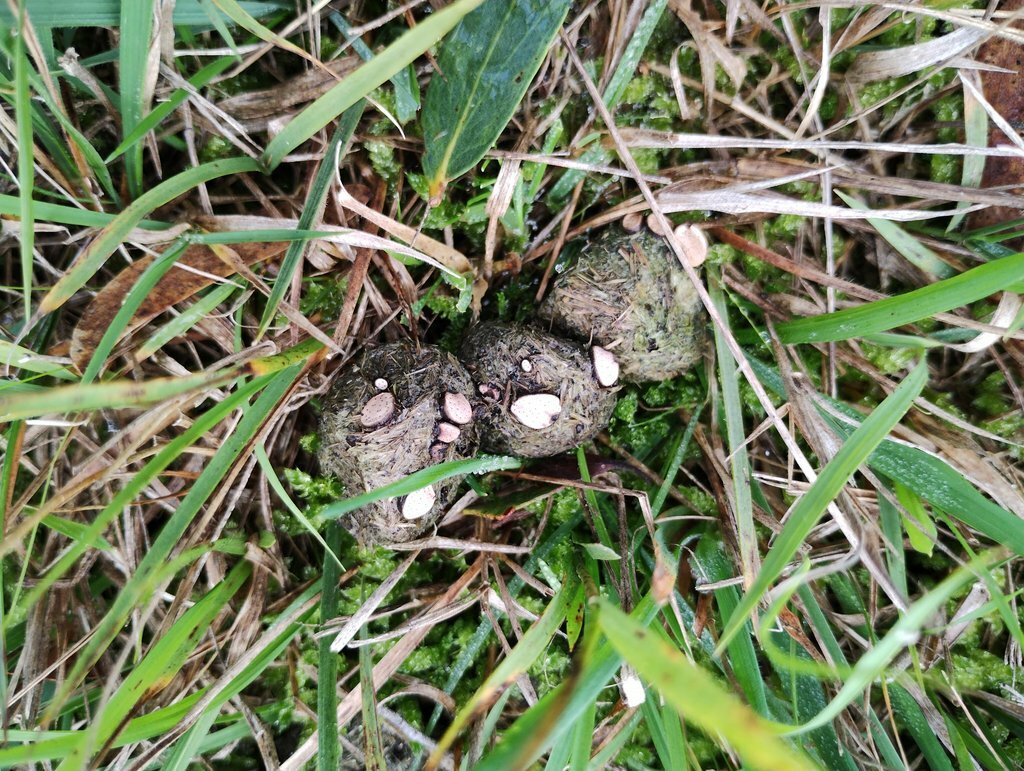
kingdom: Fungi
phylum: Ascomycota
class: Sordariomycetes
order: Xylariales
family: Xylariaceae
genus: Poronia
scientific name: Poronia erici
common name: Dung button
